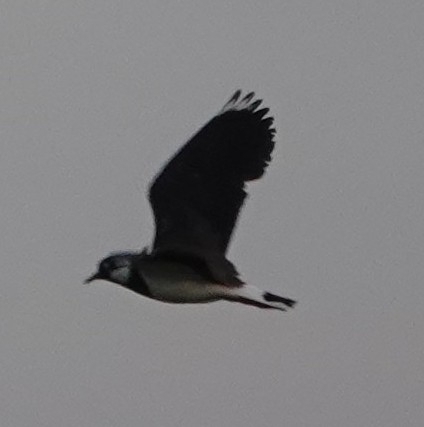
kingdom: Animalia
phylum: Chordata
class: Aves
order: Charadriiformes
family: Charadriidae
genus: Vanellus
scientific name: Vanellus vanellus
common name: Northern lapwing
